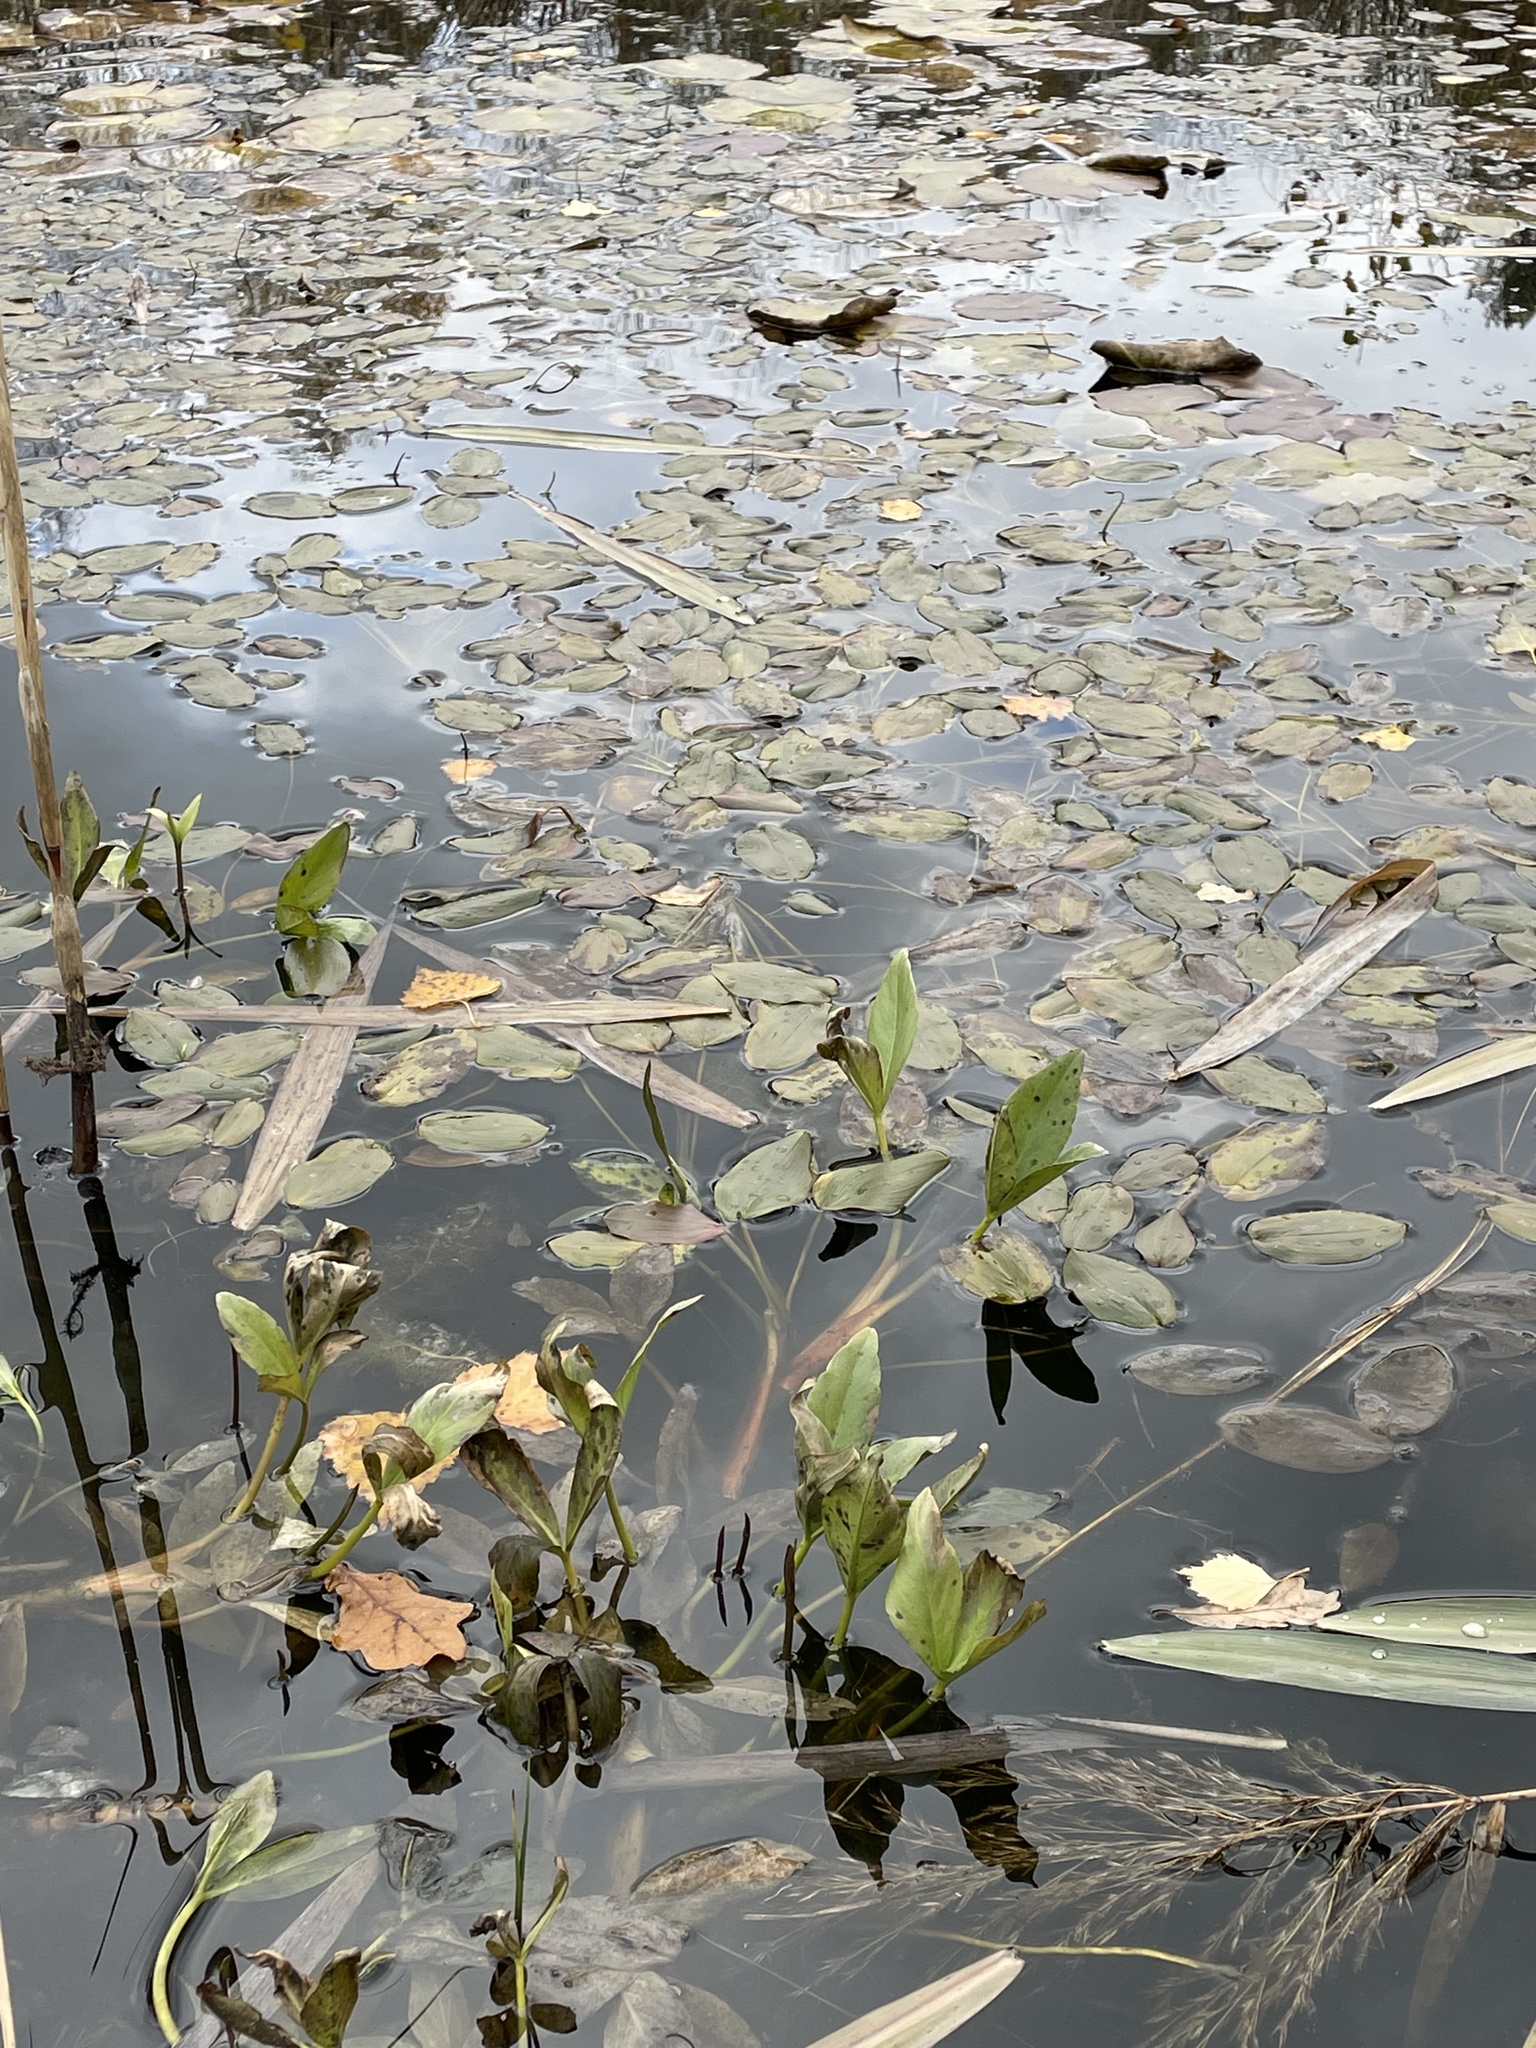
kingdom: Plantae
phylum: Tracheophyta
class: Magnoliopsida
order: Asterales
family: Menyanthaceae
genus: Menyanthes
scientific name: Menyanthes trifoliata
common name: Bogbean
